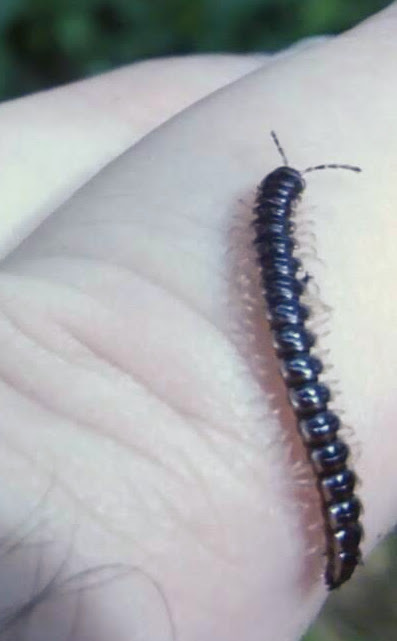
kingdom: Animalia
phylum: Arthropoda
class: Diplopoda
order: Polydesmida
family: Paradoxosomatidae
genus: Oxidus
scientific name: Oxidus gracilis
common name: Greenhouse millipede
